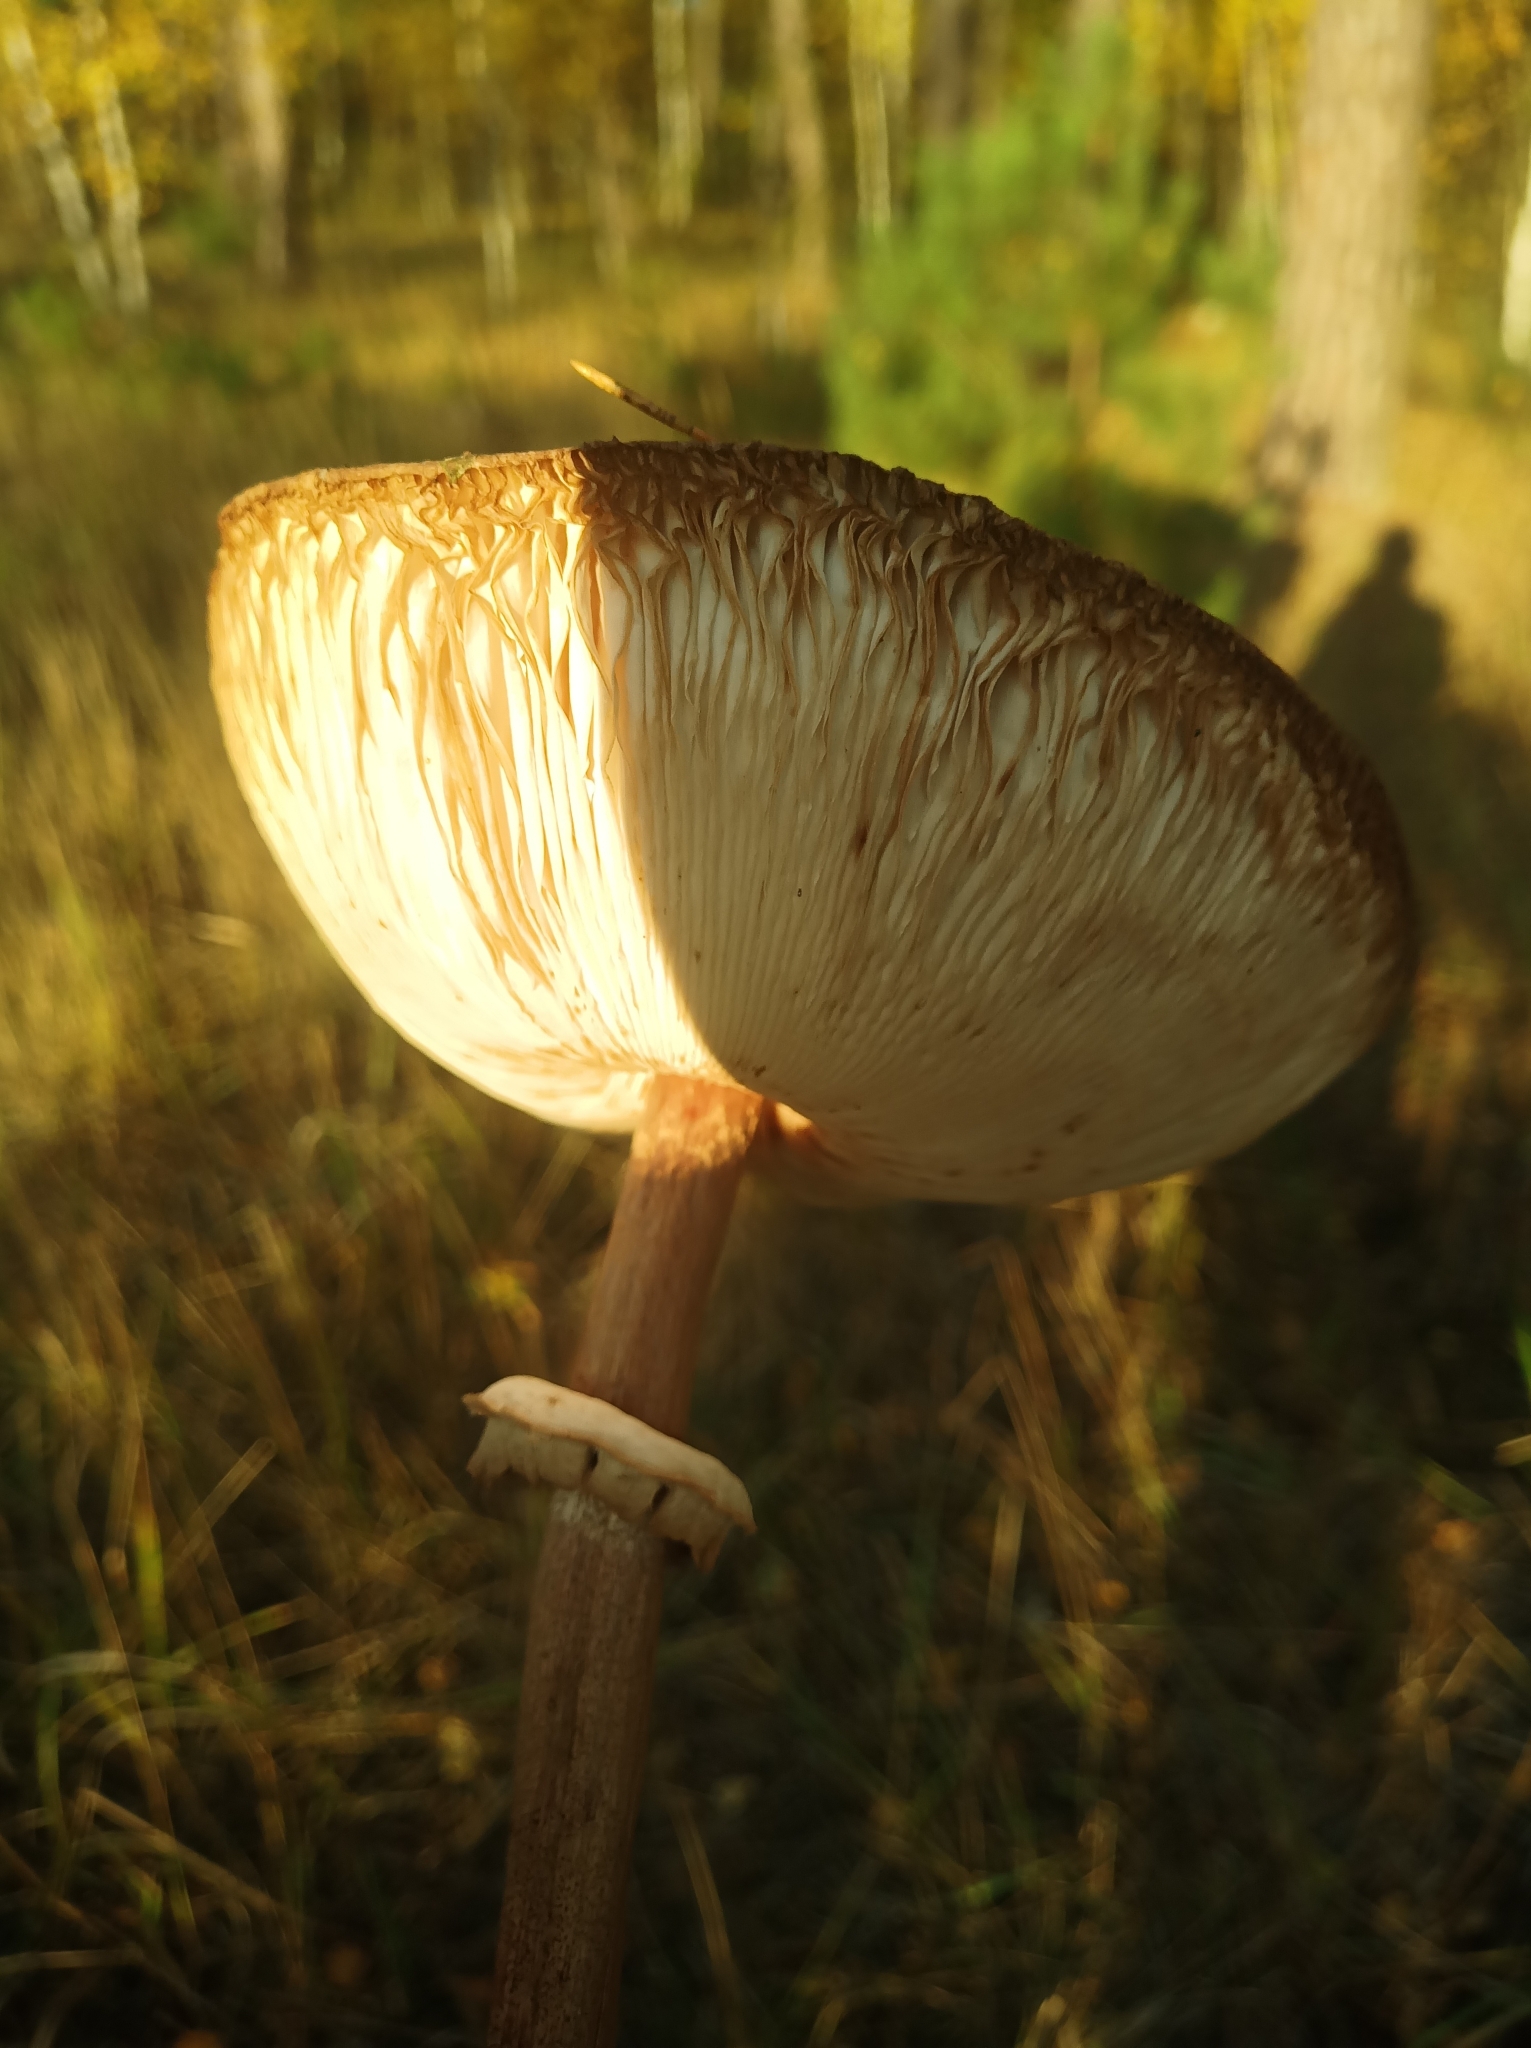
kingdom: Fungi
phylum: Basidiomycota
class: Agaricomycetes
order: Agaricales
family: Agaricaceae
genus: Macrolepiota
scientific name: Macrolepiota procera
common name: Parasol
